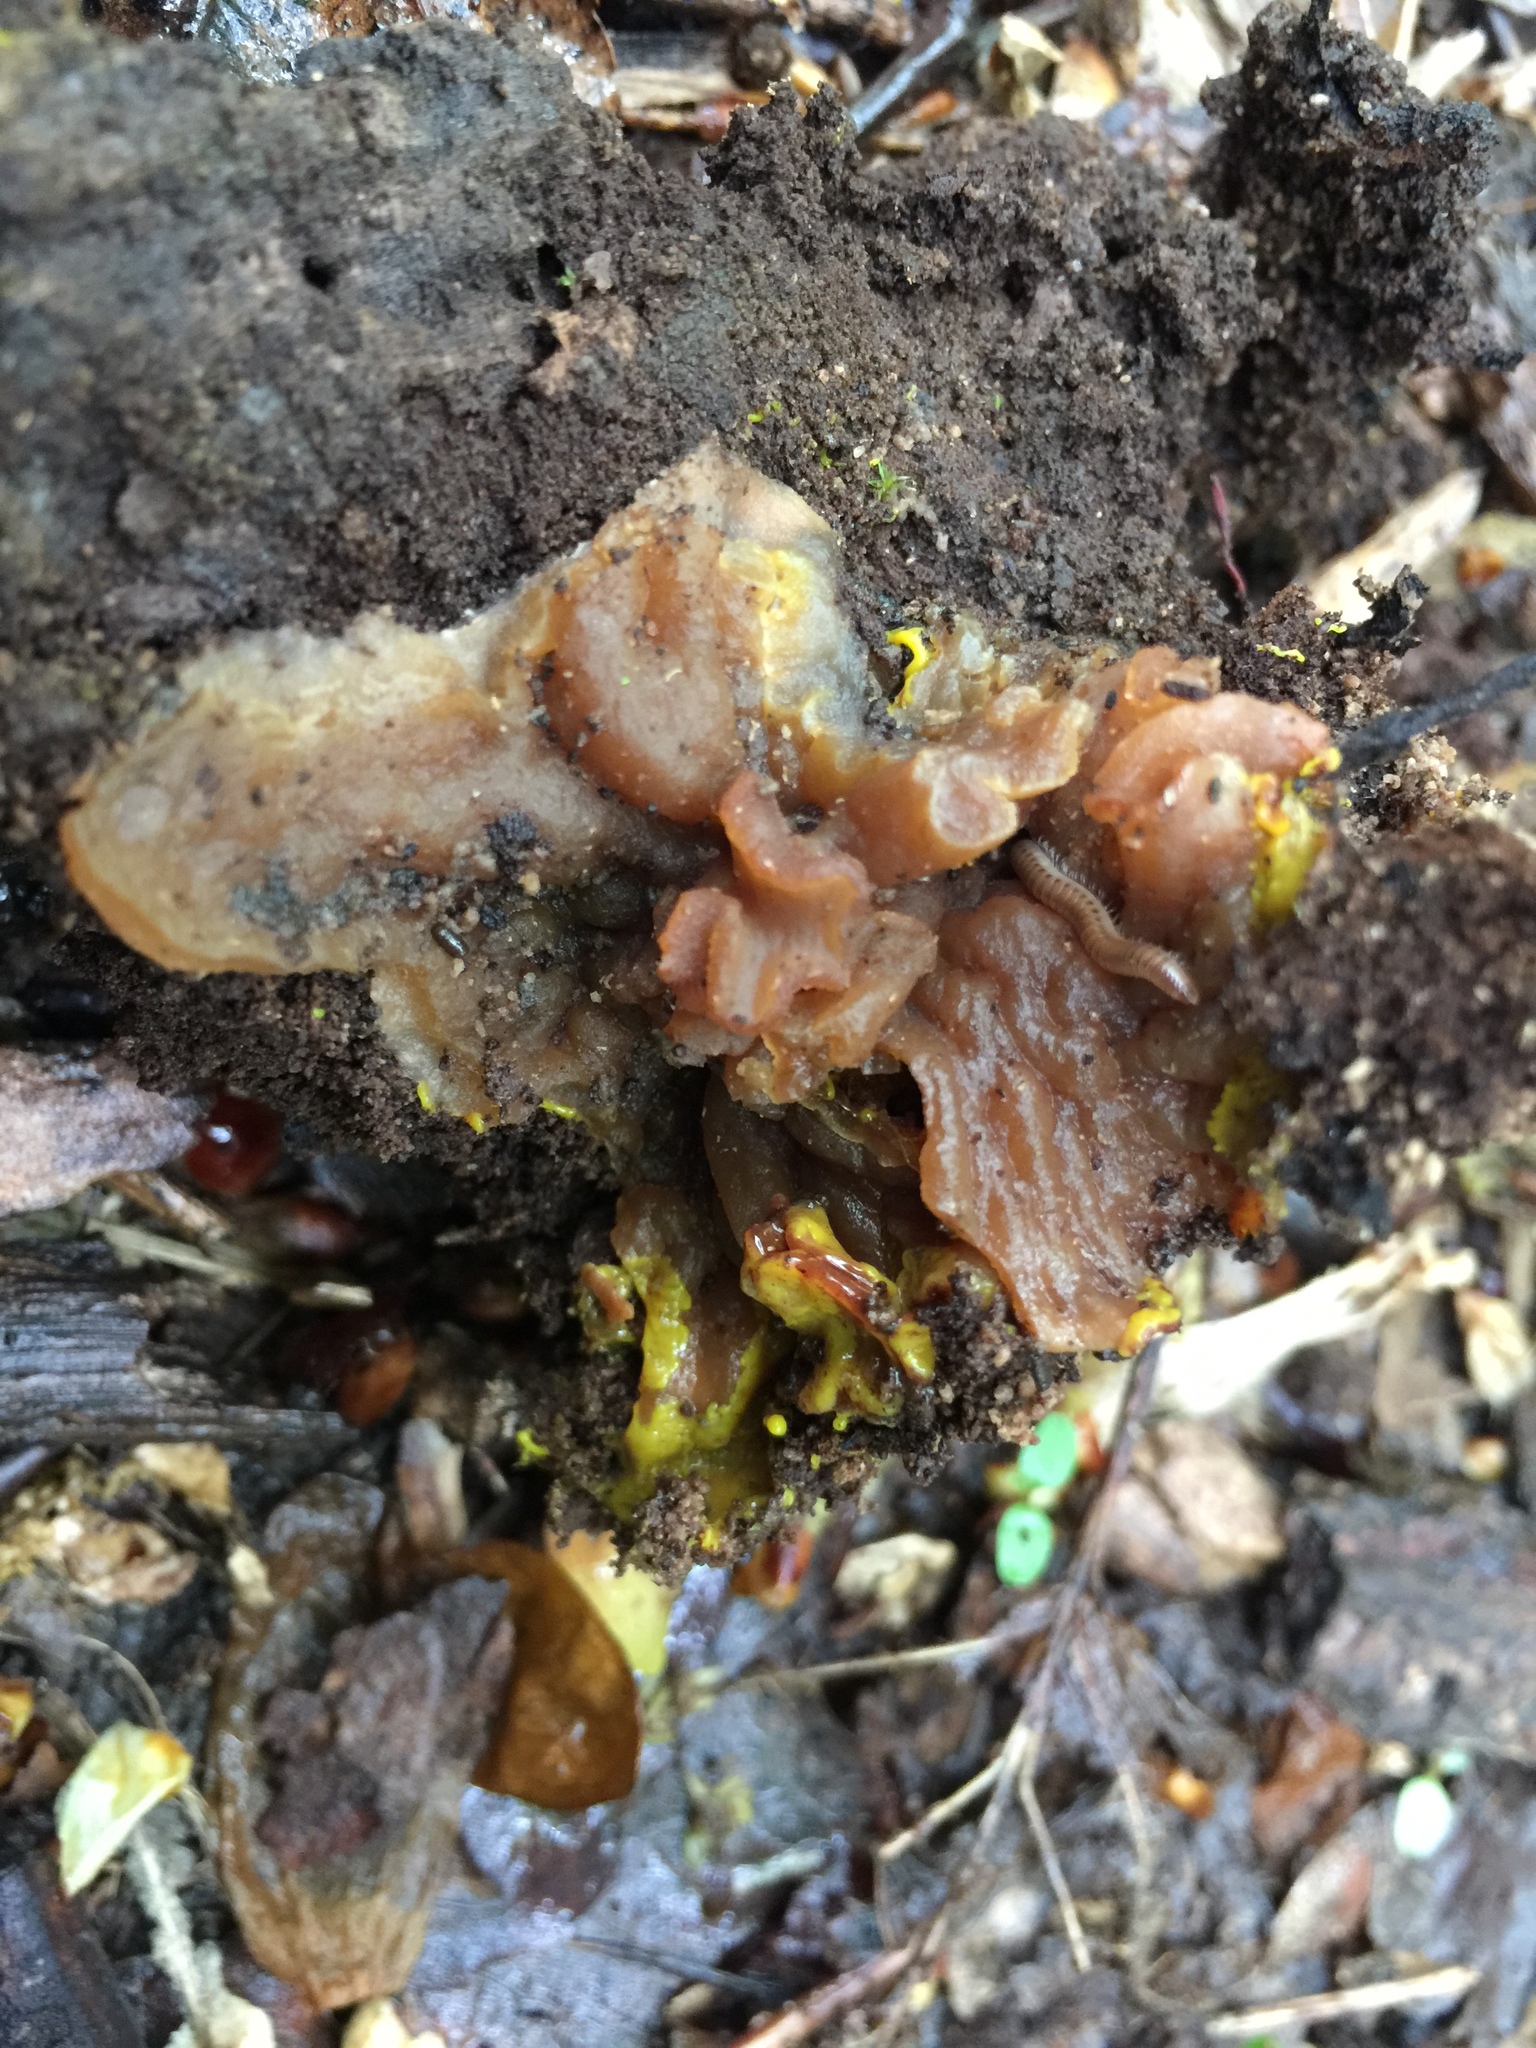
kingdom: Fungi
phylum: Ascomycota
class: Pezizomycetes
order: Pezizales
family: Morchellaceae
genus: Disciotis
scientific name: Disciotis venosa
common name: Bleach cup
